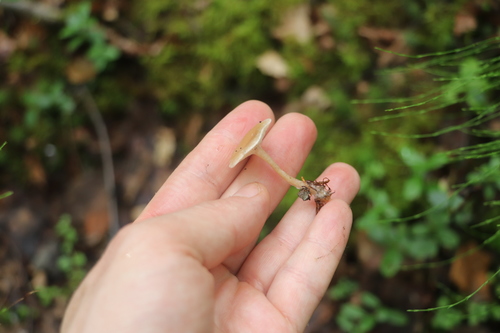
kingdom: Fungi
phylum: Basidiomycota
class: Agaricomycetes
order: Agaricales
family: Tricholomataceae
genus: Clitocybe
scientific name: Clitocybe vibecina
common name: Mealy funnel
